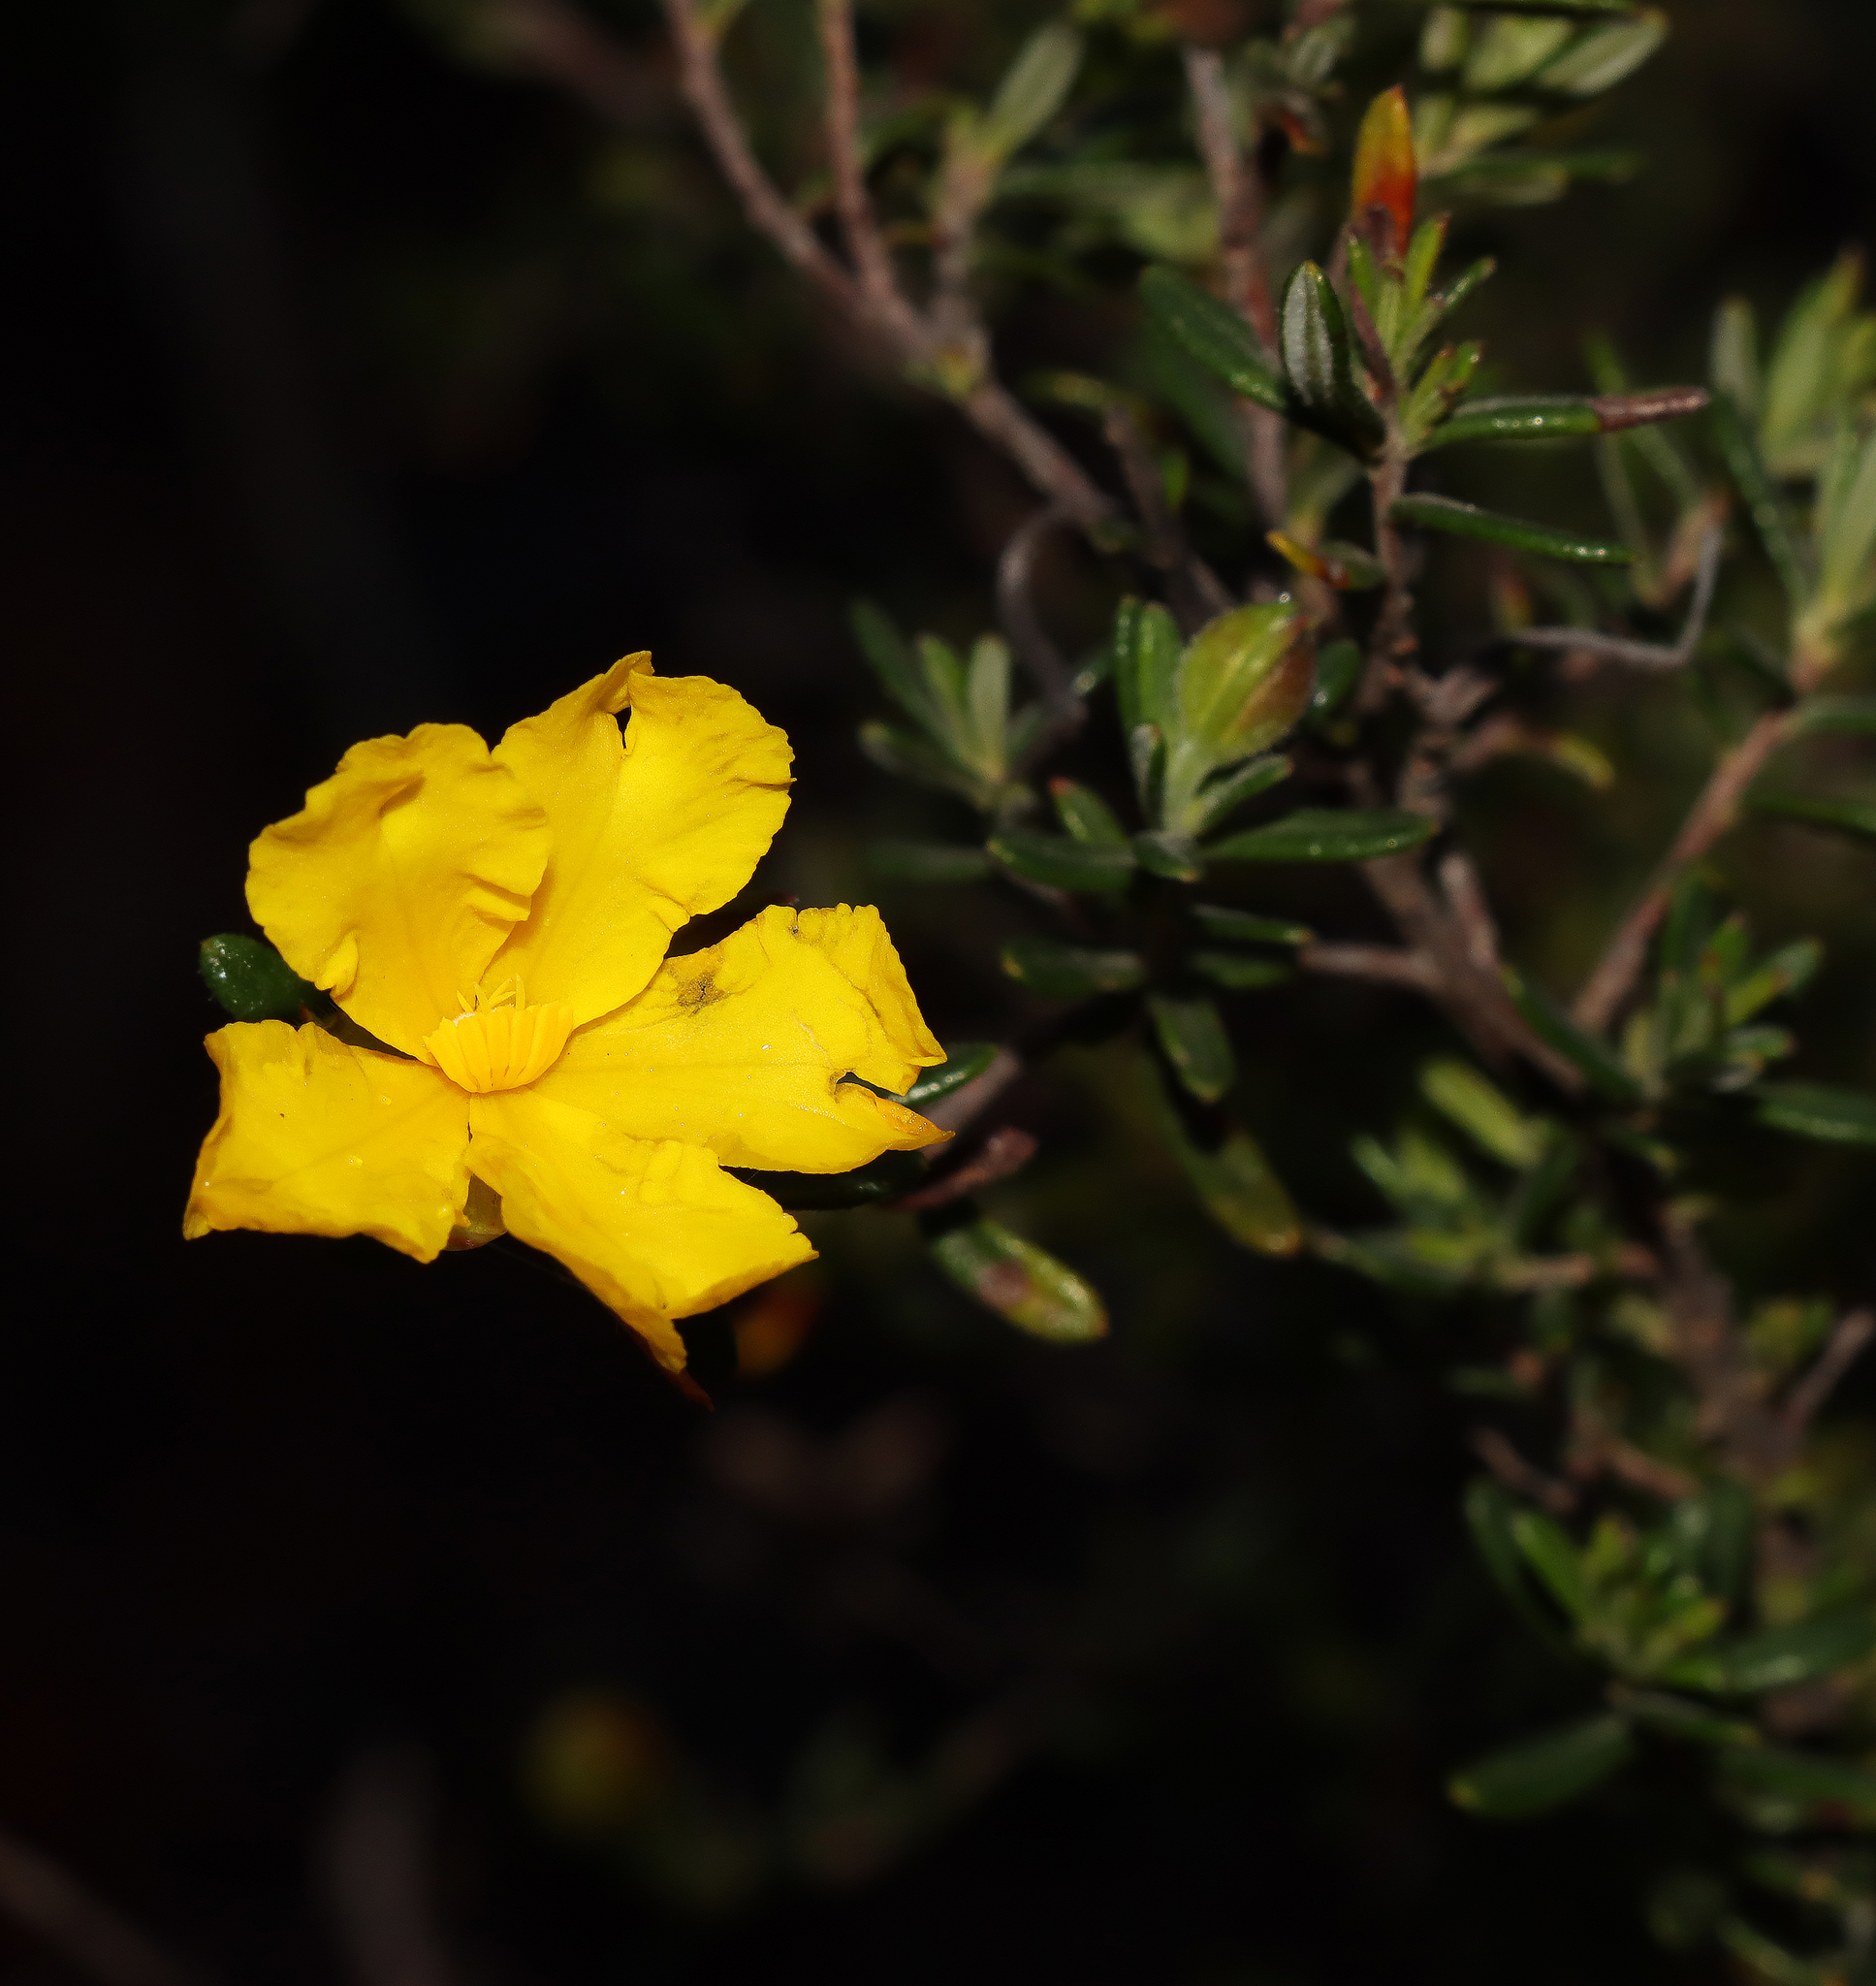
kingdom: Plantae
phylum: Tracheophyta
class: Magnoliopsida
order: Dilleniales
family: Dilleniaceae
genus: Hibbertia
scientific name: Hibbertia hypericoides
